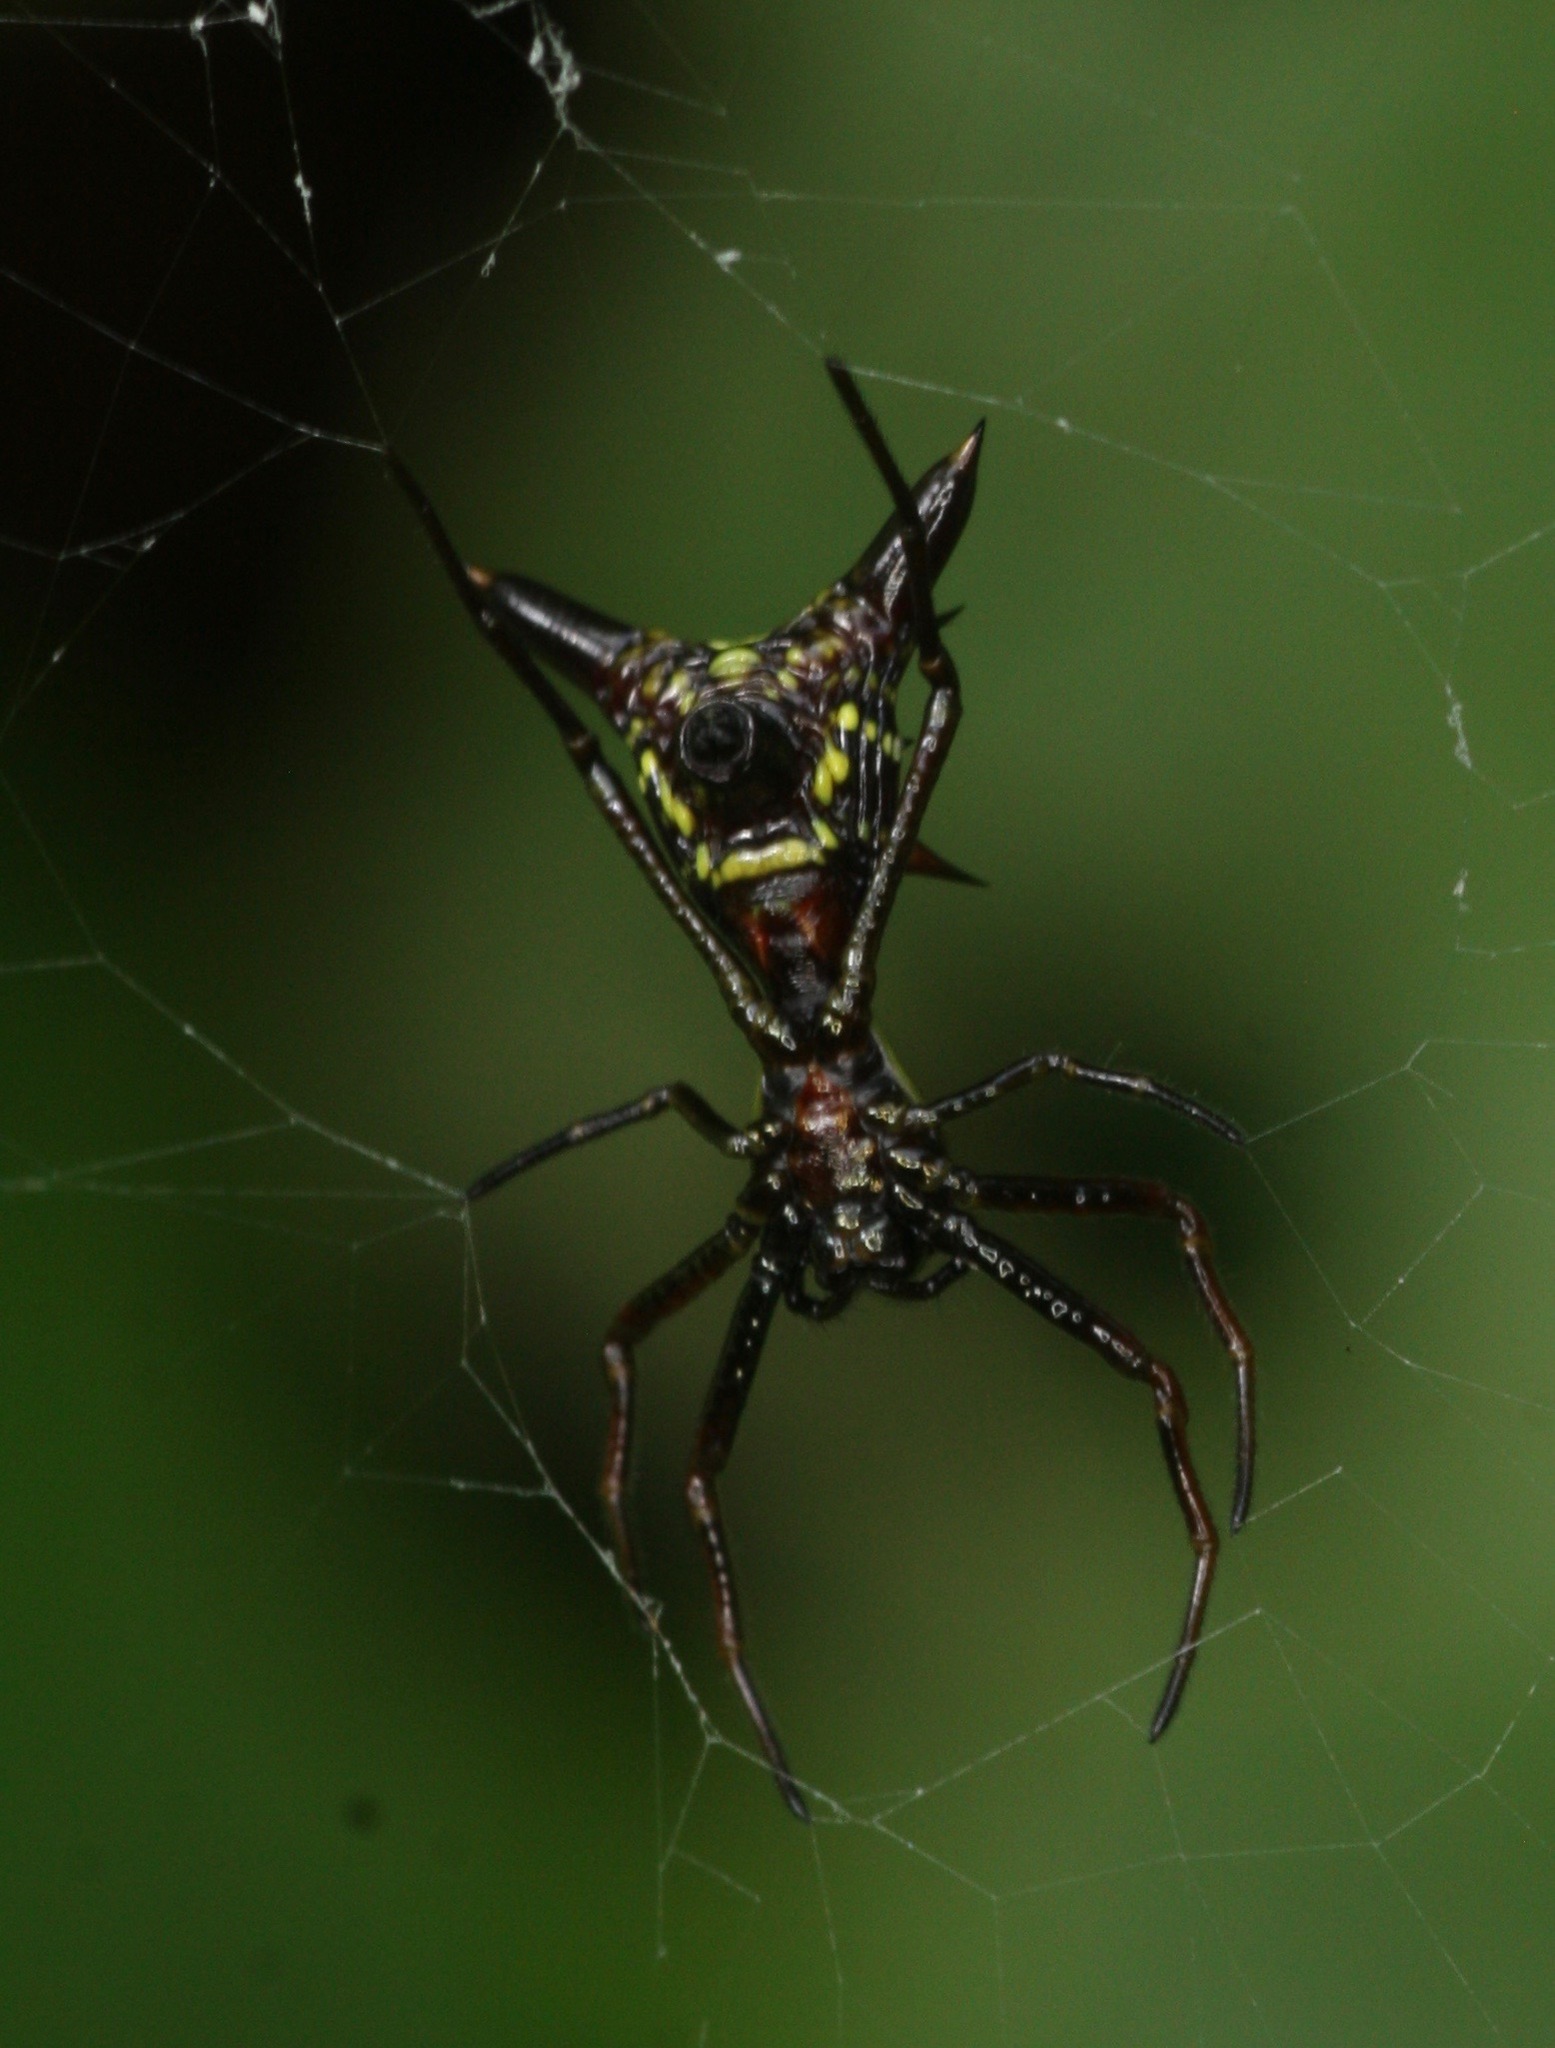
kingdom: Animalia
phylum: Arthropoda
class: Arachnida
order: Araneae
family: Araneidae
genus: Micrathena
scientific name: Micrathena
